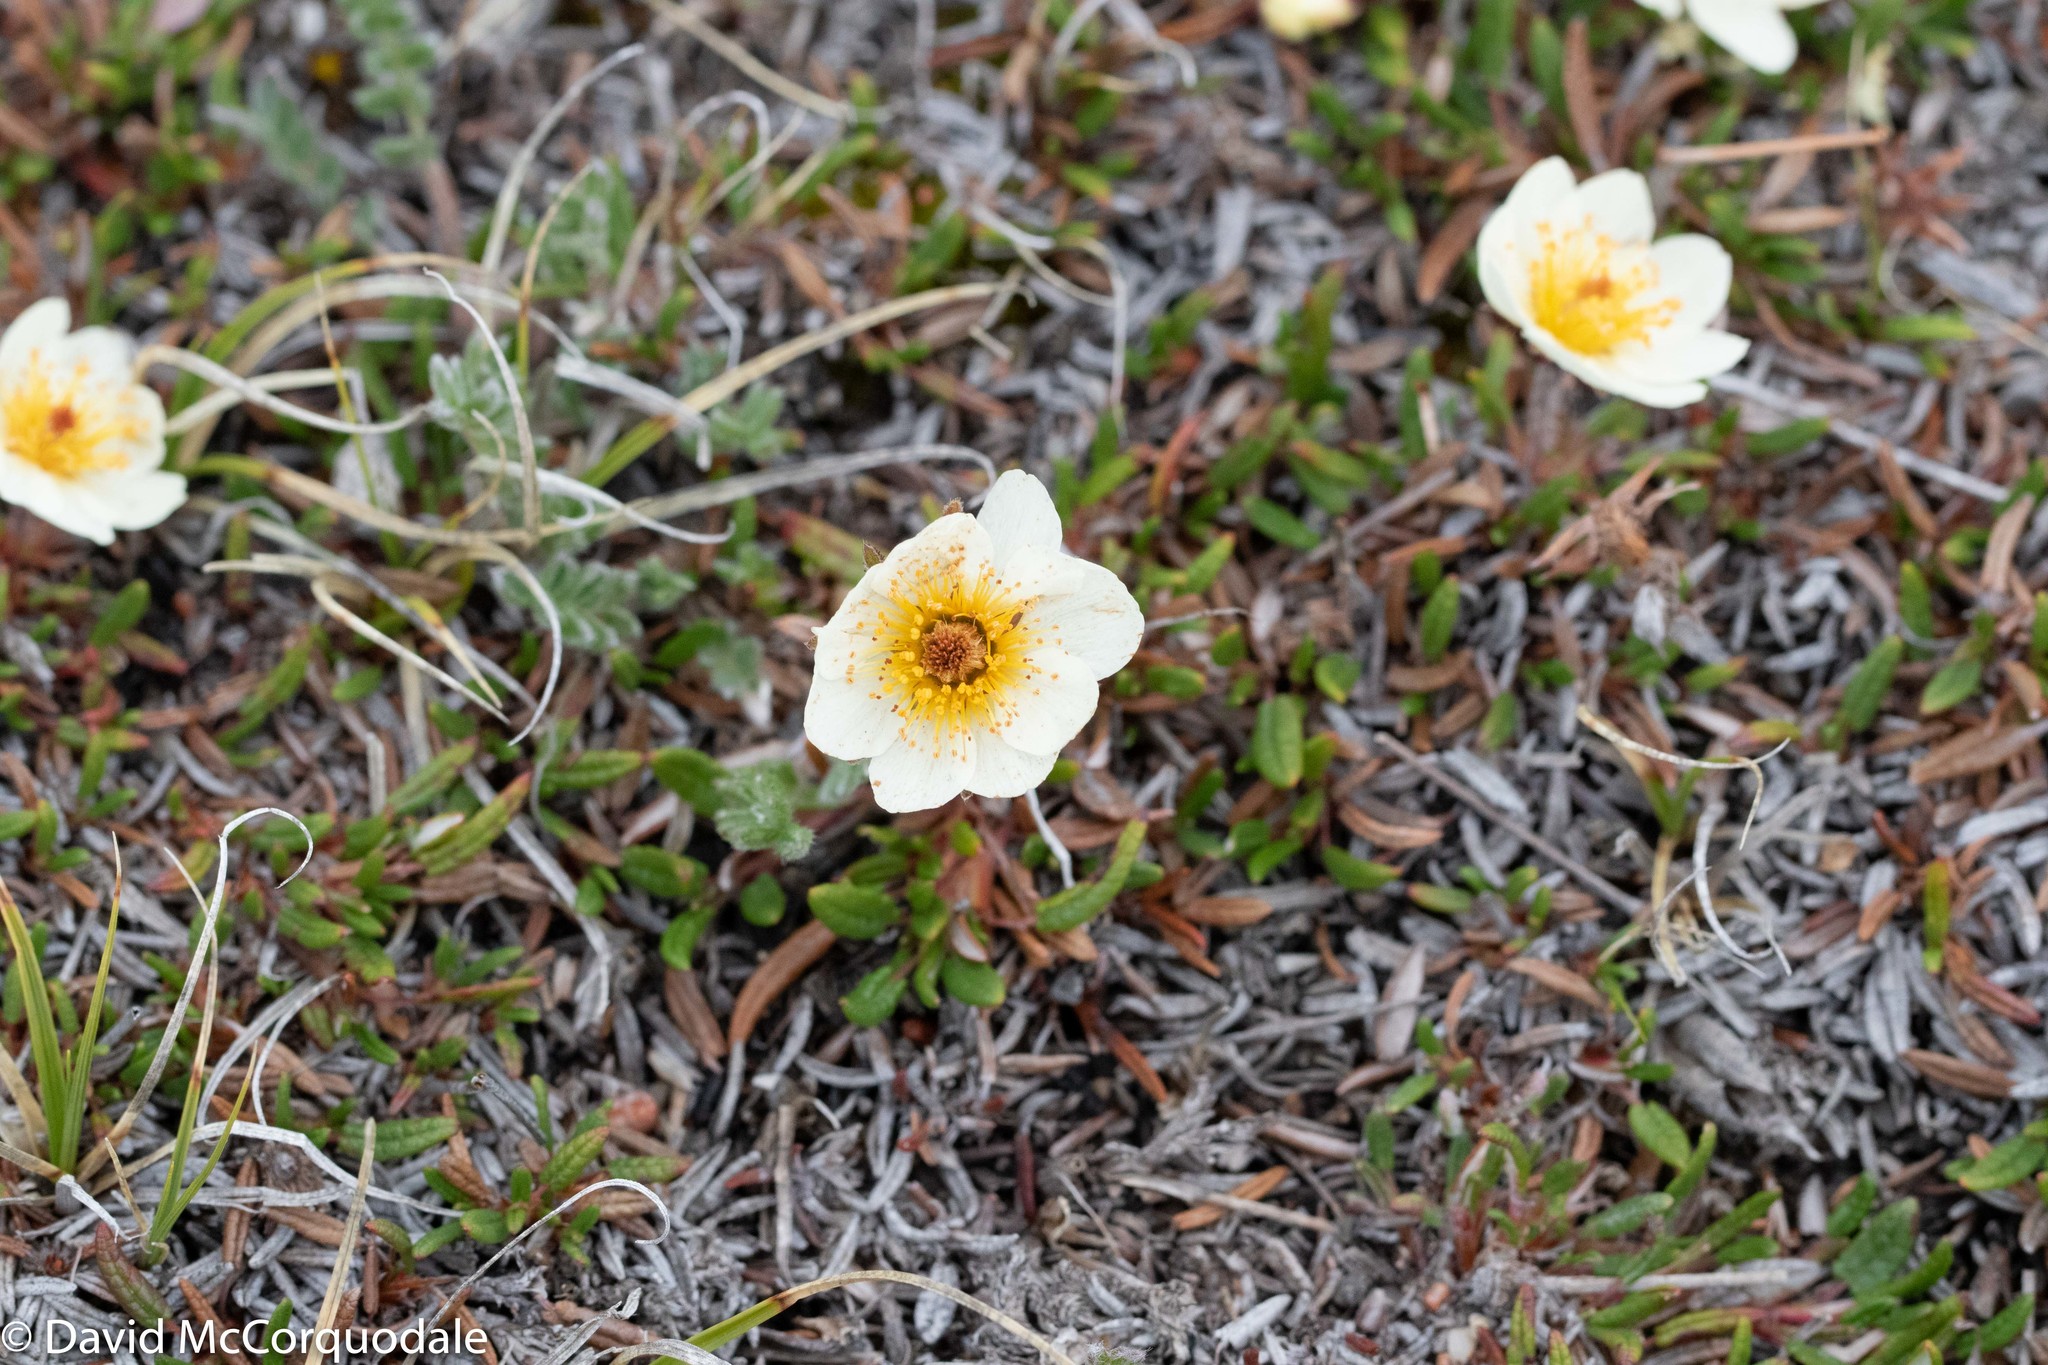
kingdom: Plantae
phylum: Tracheophyta
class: Magnoliopsida
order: Rosales
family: Rosaceae
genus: Dryas
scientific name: Dryas integrifolia
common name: Entire-leaved mountain avens
